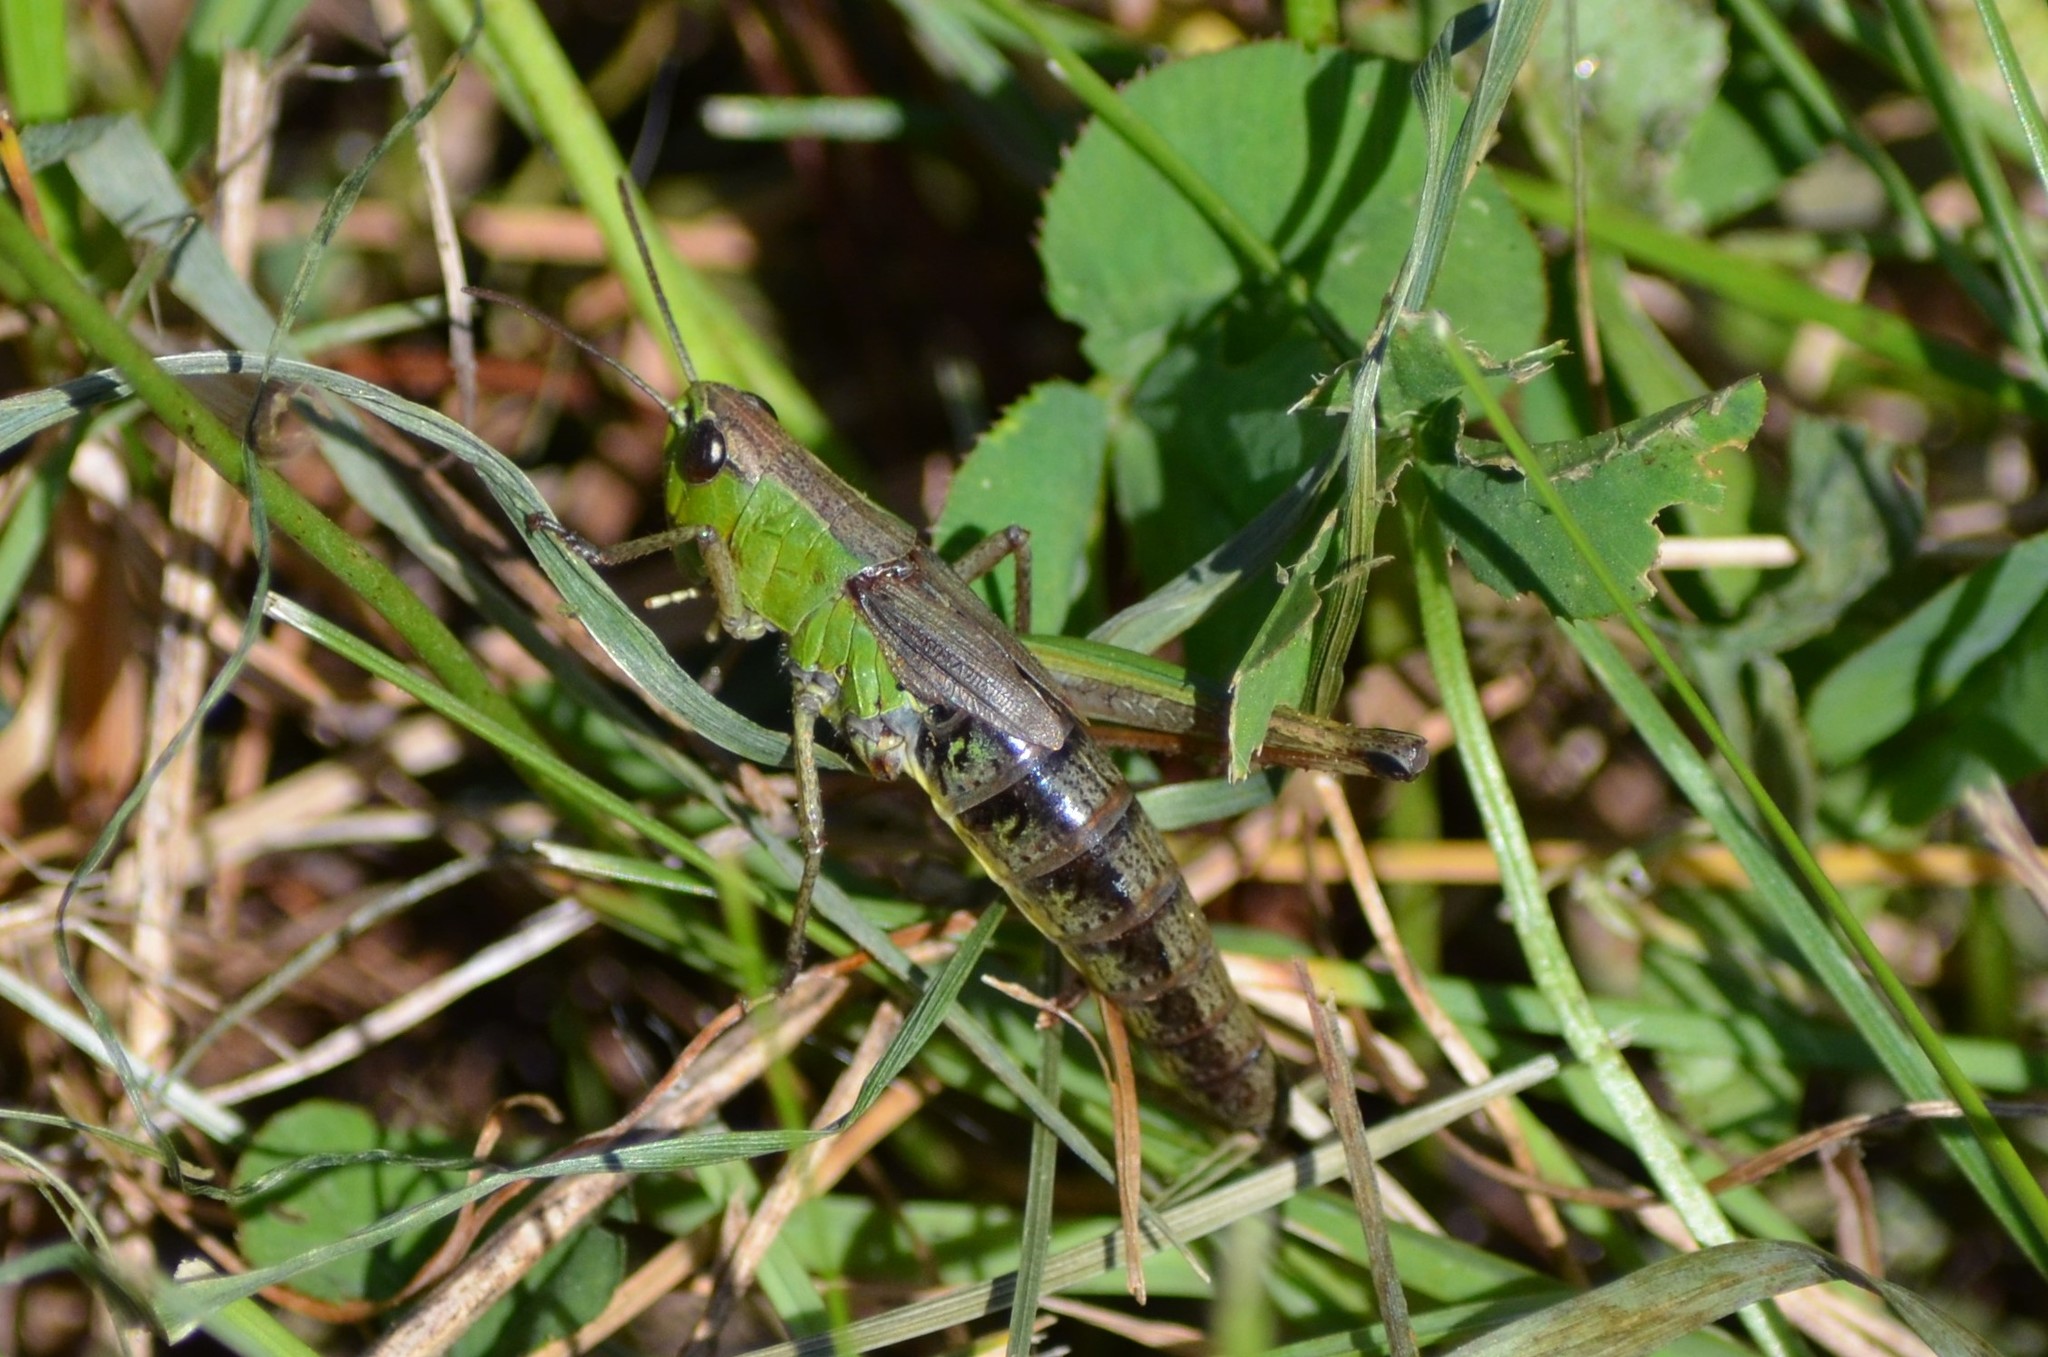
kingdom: Animalia
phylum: Arthropoda
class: Insecta
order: Orthoptera
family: Acrididae
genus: Pseudochorthippus
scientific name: Pseudochorthippus parallelus
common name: Meadow grasshopper
